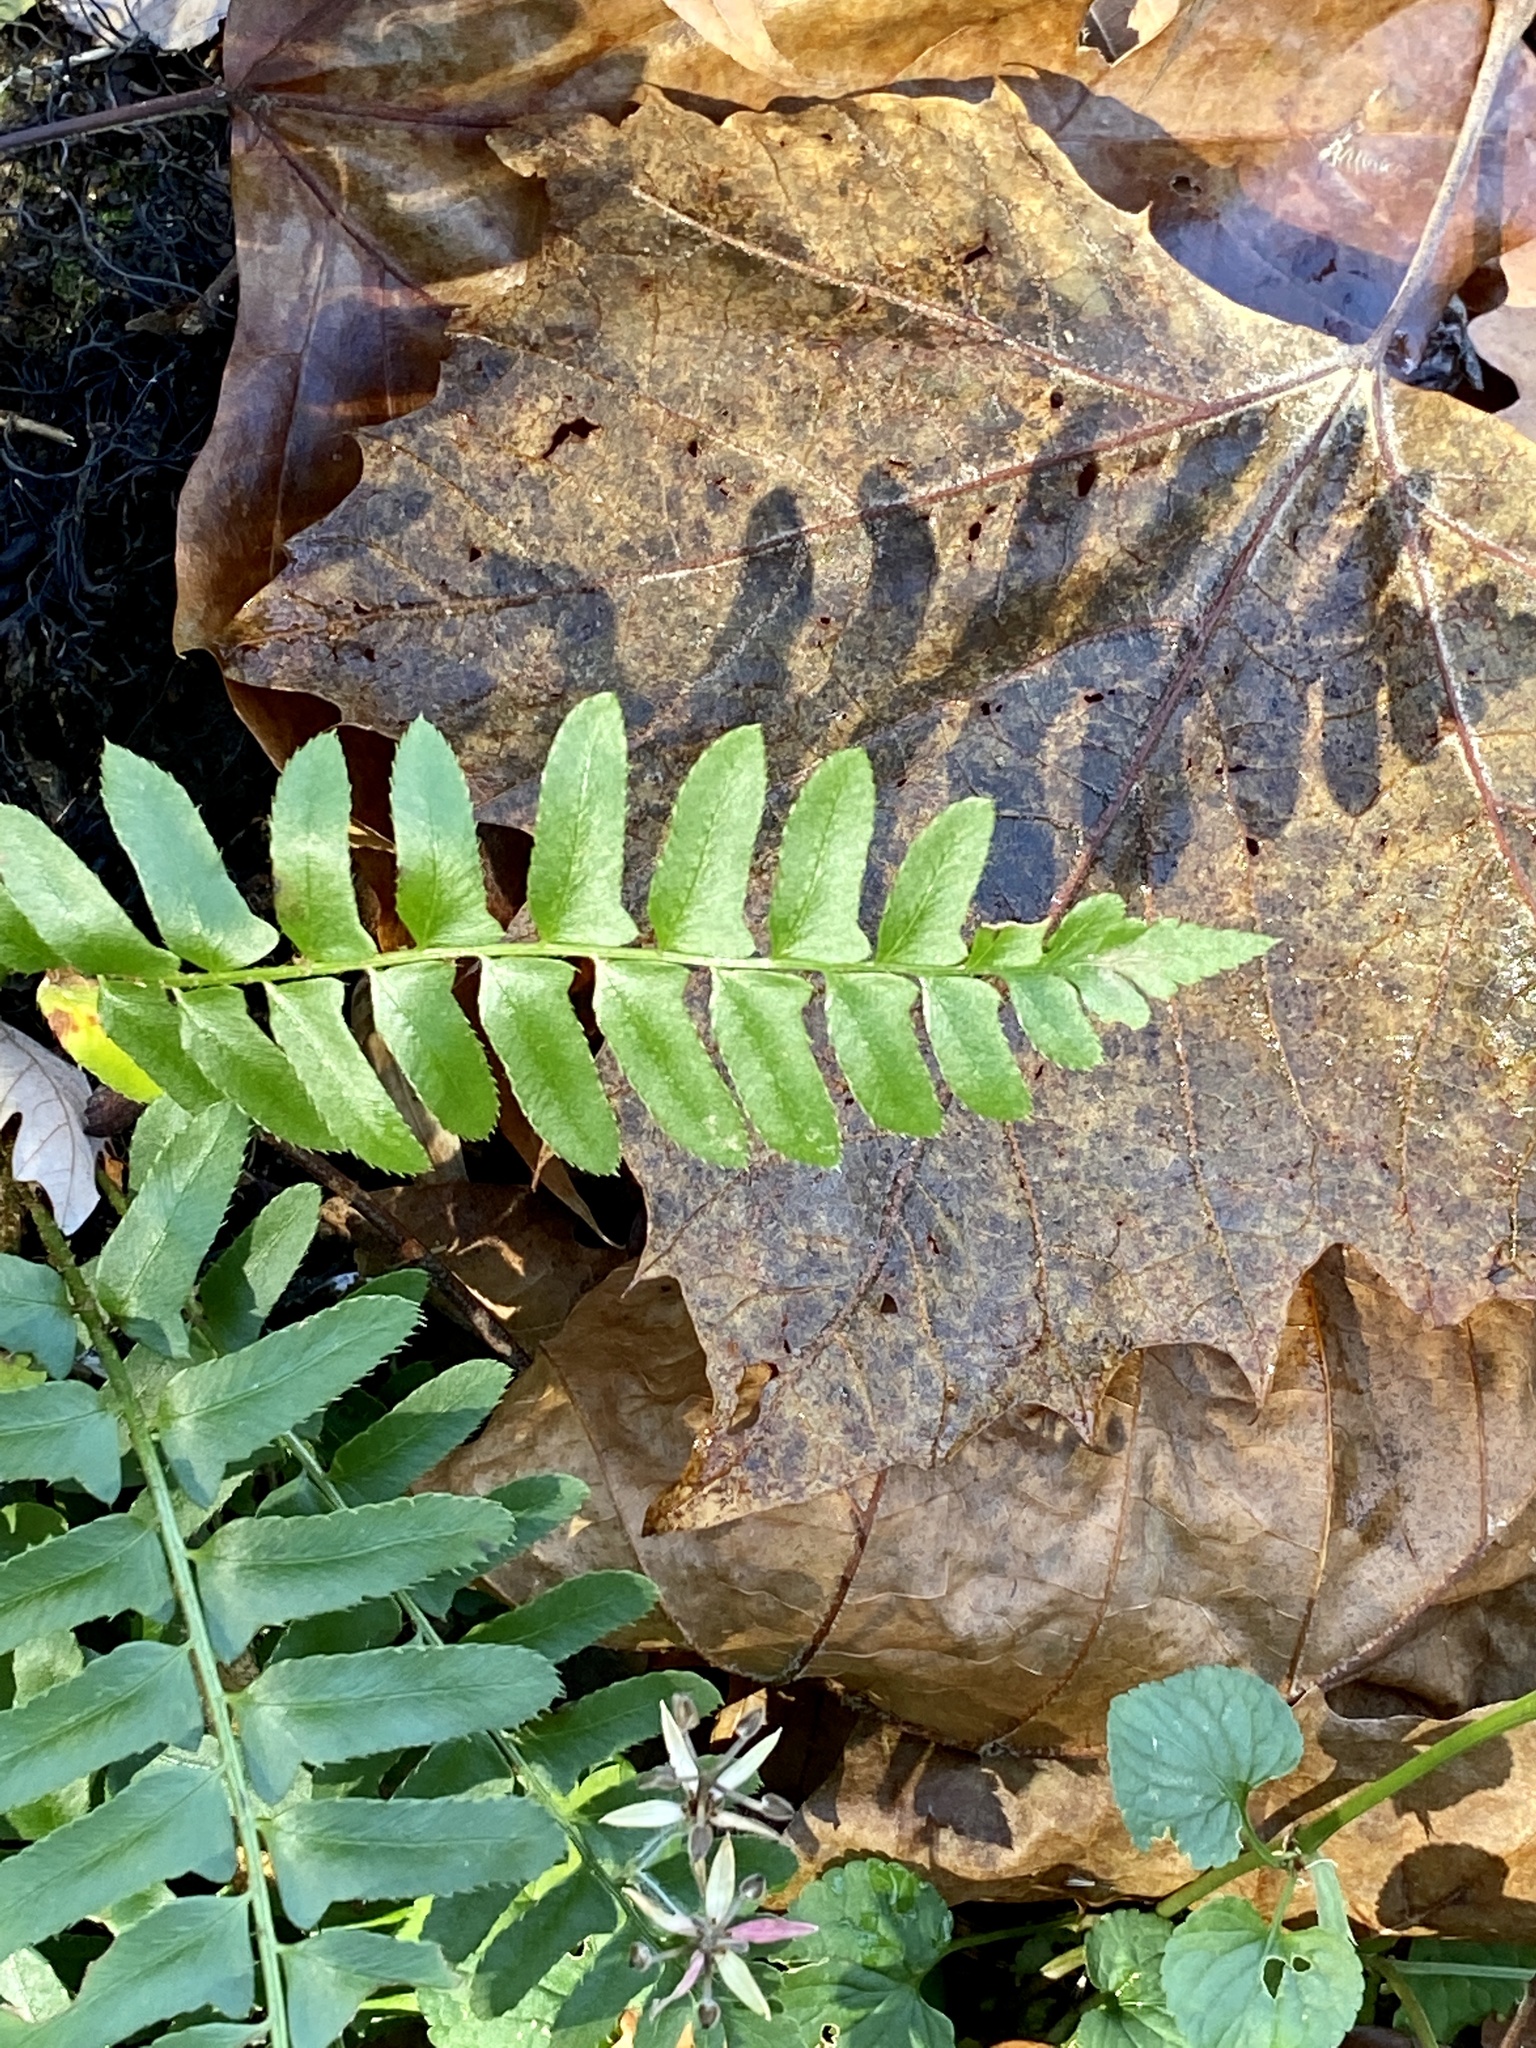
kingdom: Plantae
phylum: Tracheophyta
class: Polypodiopsida
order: Polypodiales
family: Dryopteridaceae
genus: Polystichum
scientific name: Polystichum acrostichoides
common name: Christmas fern
